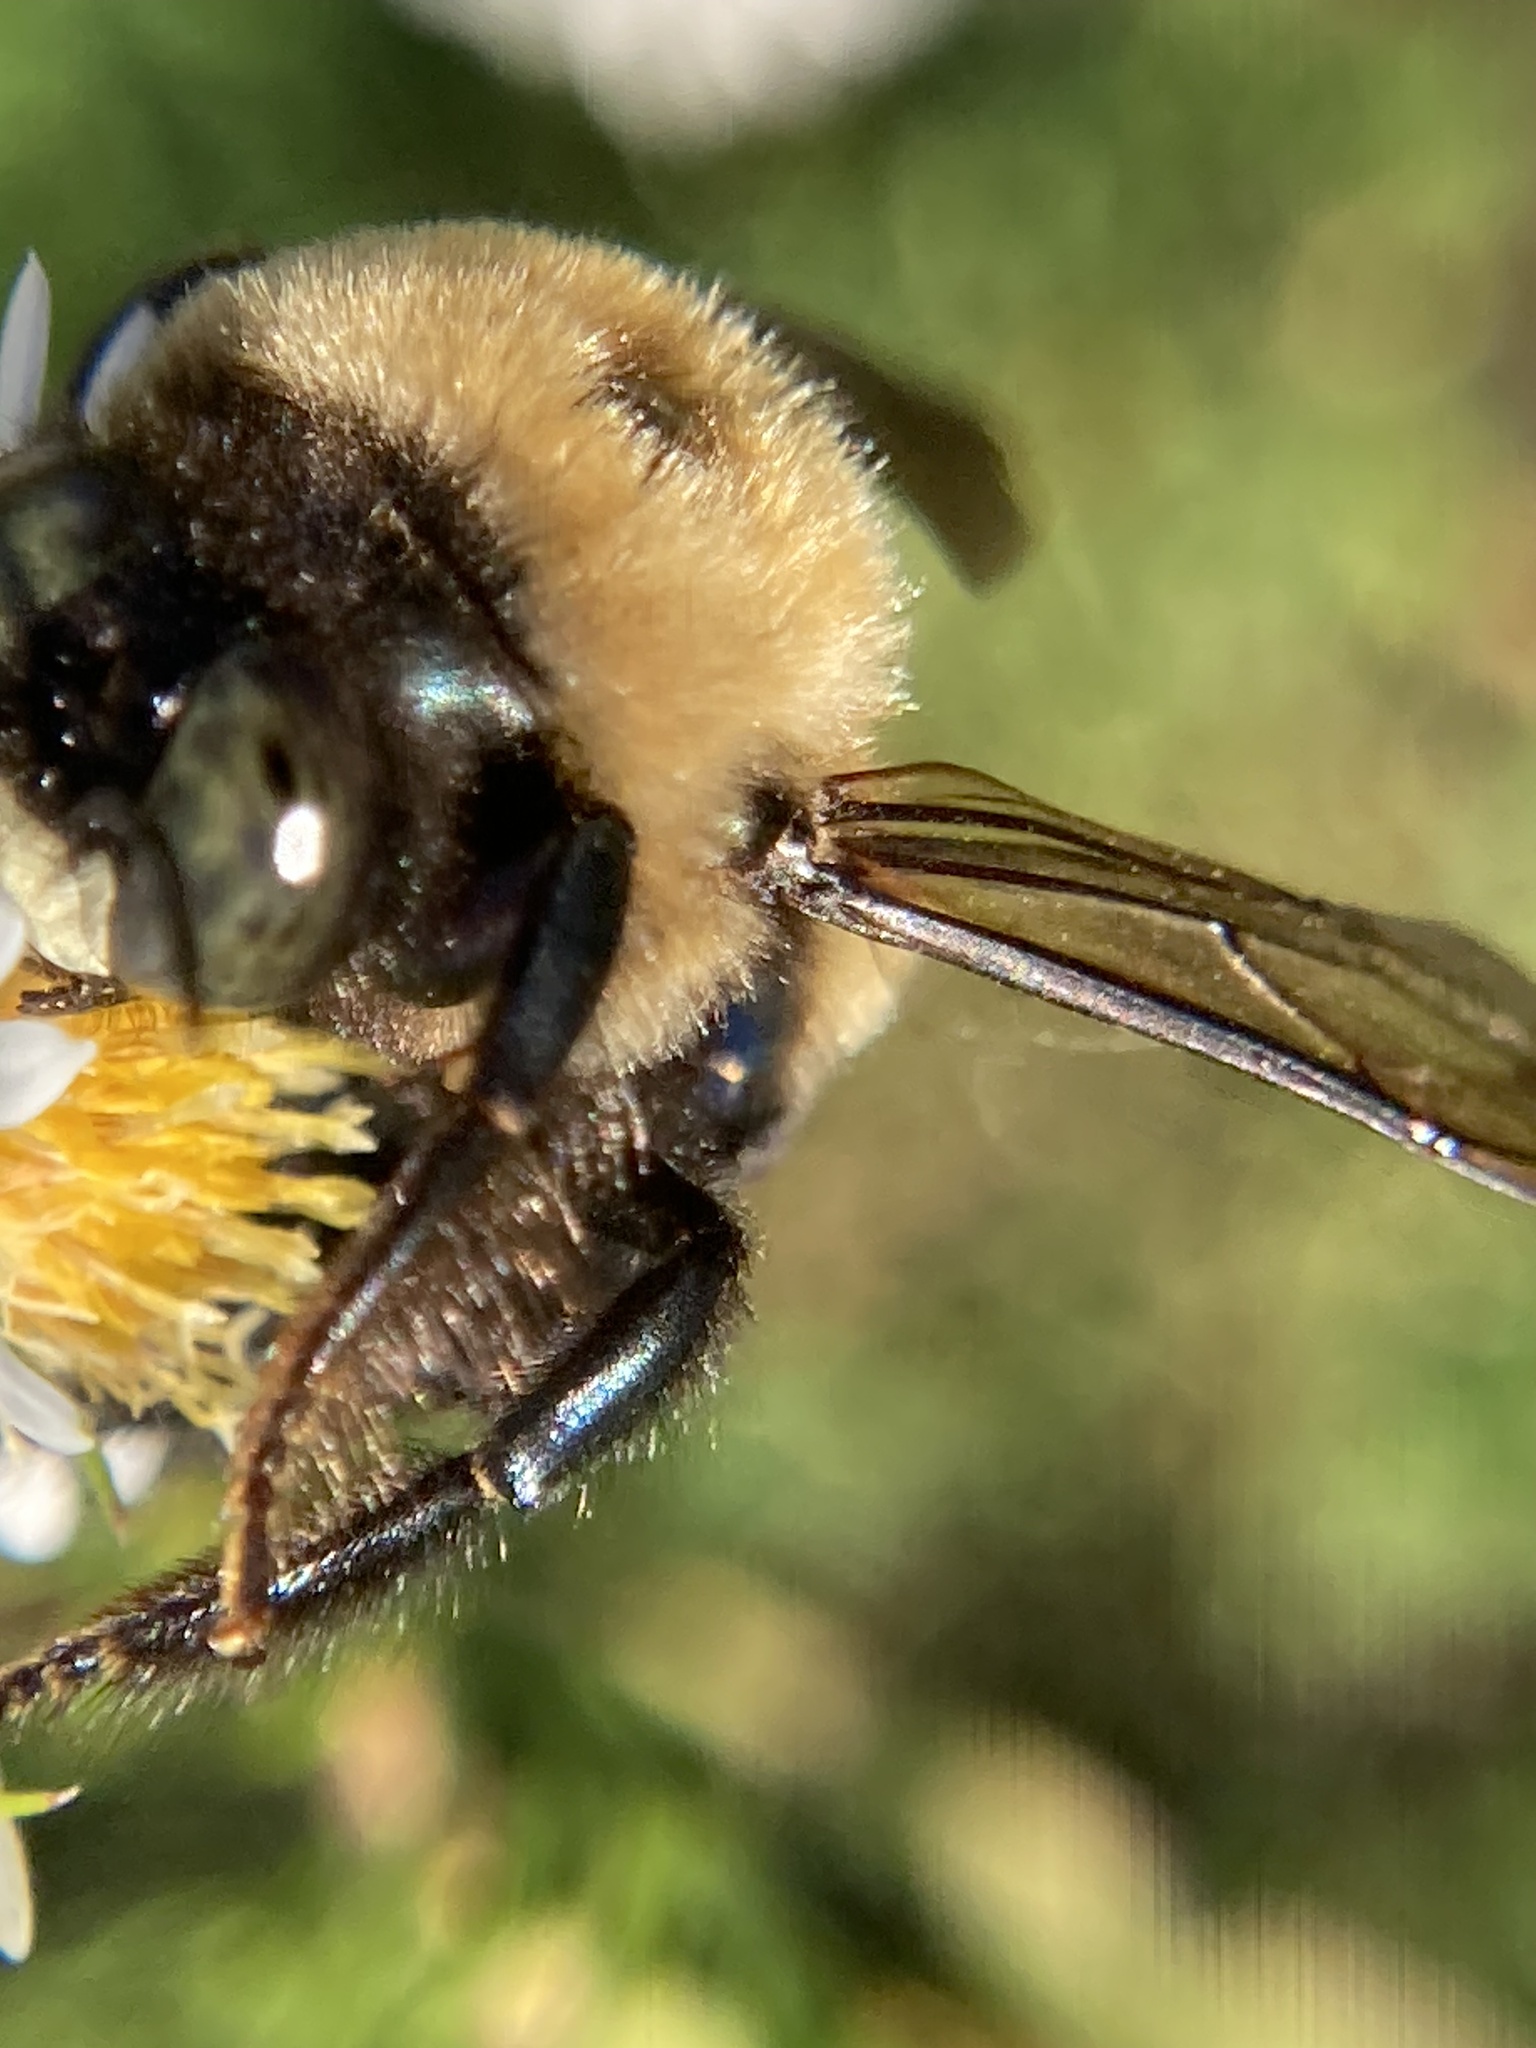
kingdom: Animalia
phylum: Arthropoda
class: Insecta
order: Hymenoptera
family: Apidae
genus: Xylocopa
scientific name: Xylocopa virginica
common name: Carpenter bee
